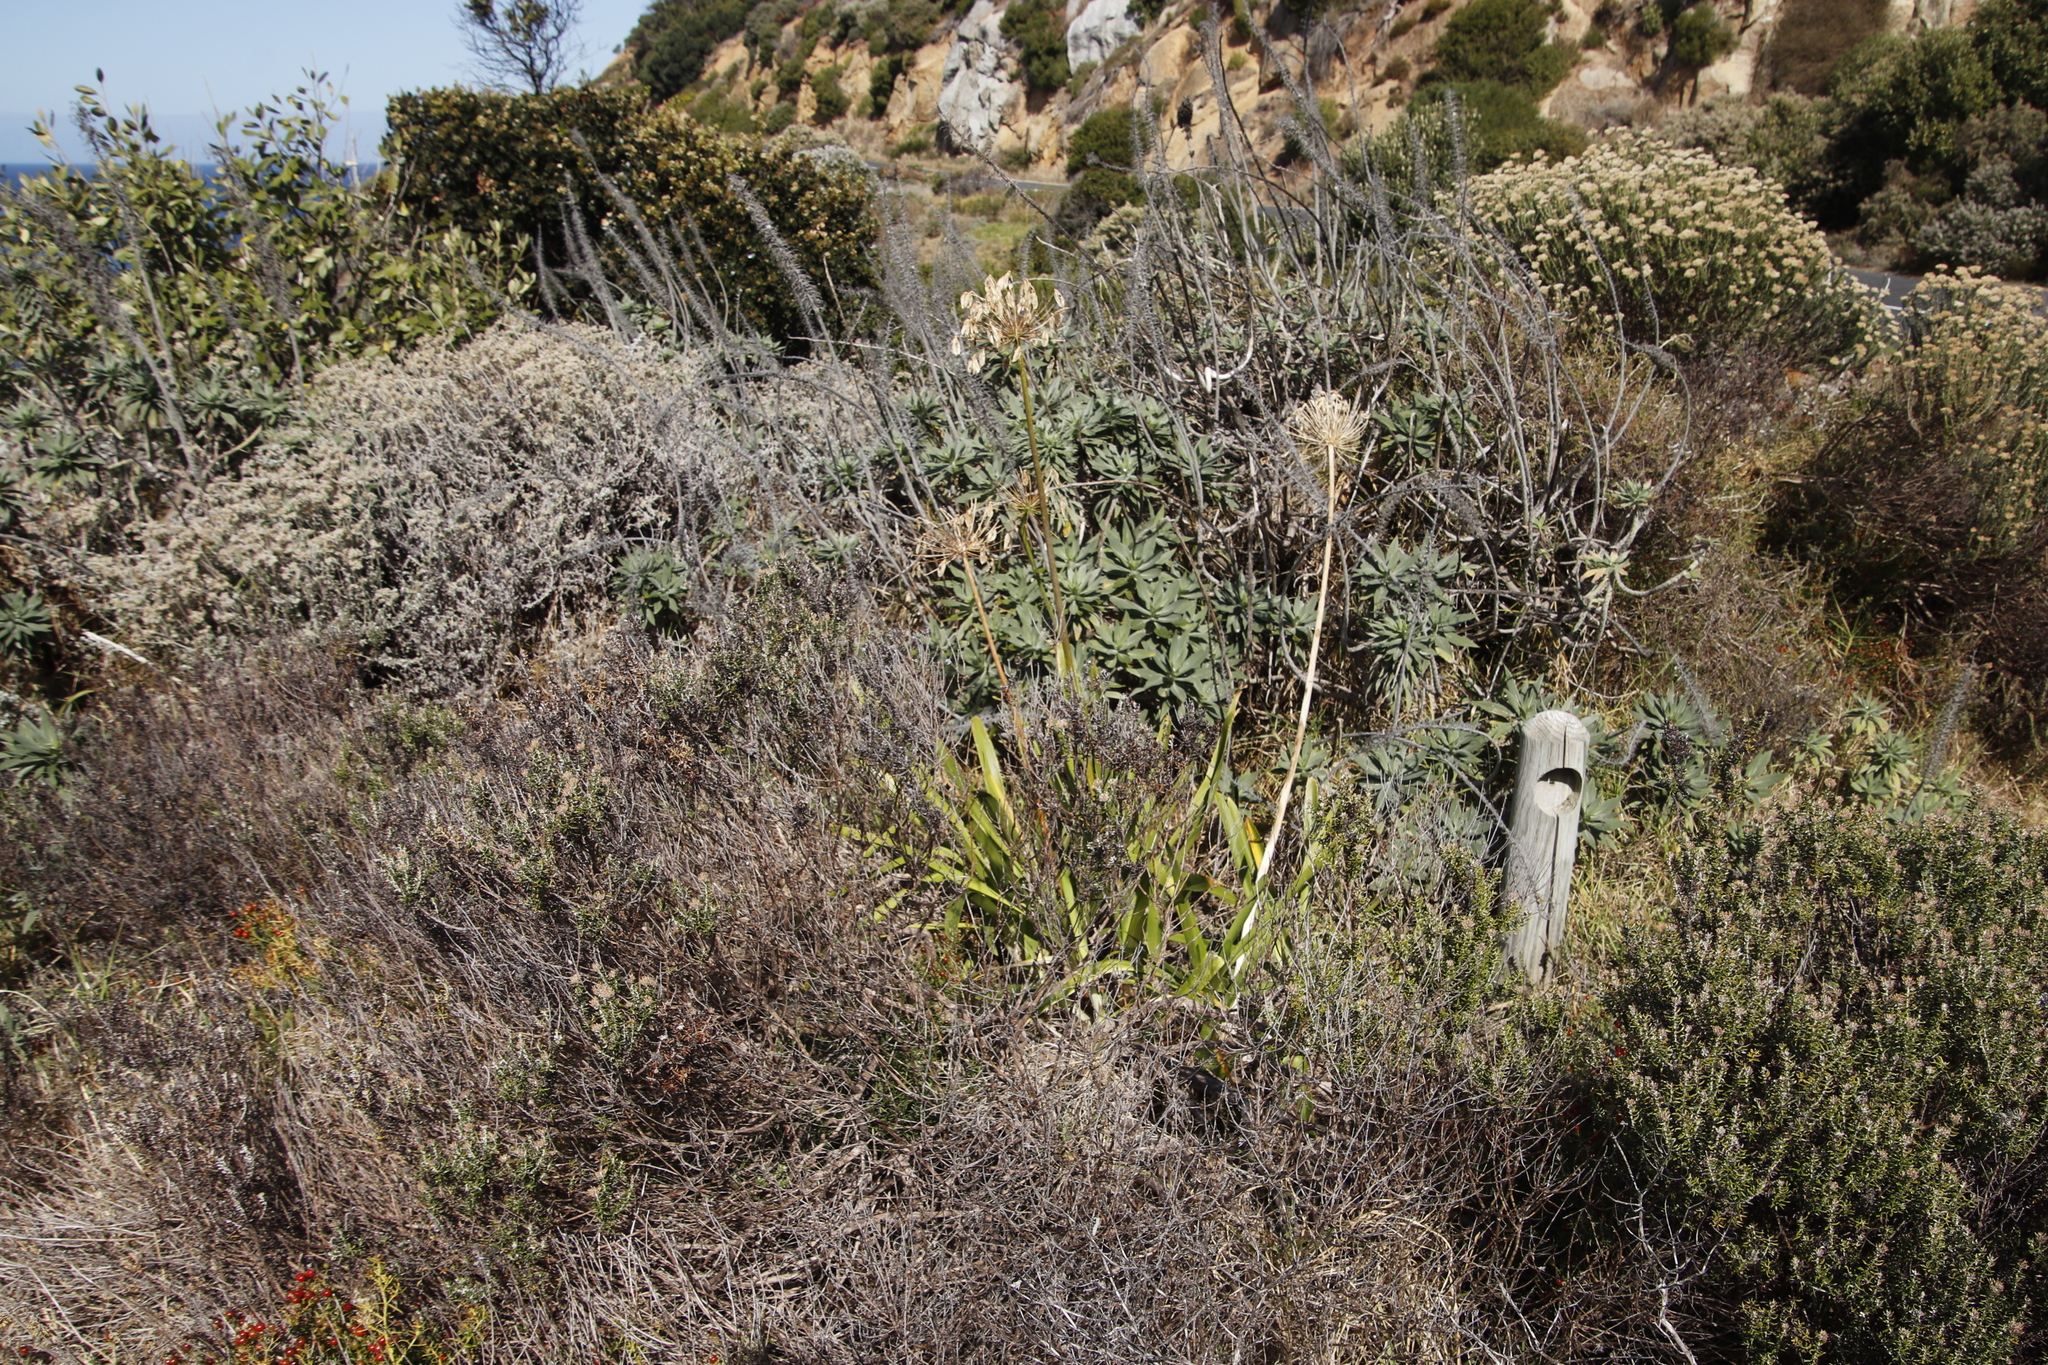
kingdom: Plantae
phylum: Tracheophyta
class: Liliopsida
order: Asparagales
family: Amaryllidaceae
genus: Agapanthus
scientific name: Agapanthus praecox
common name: African-lily
